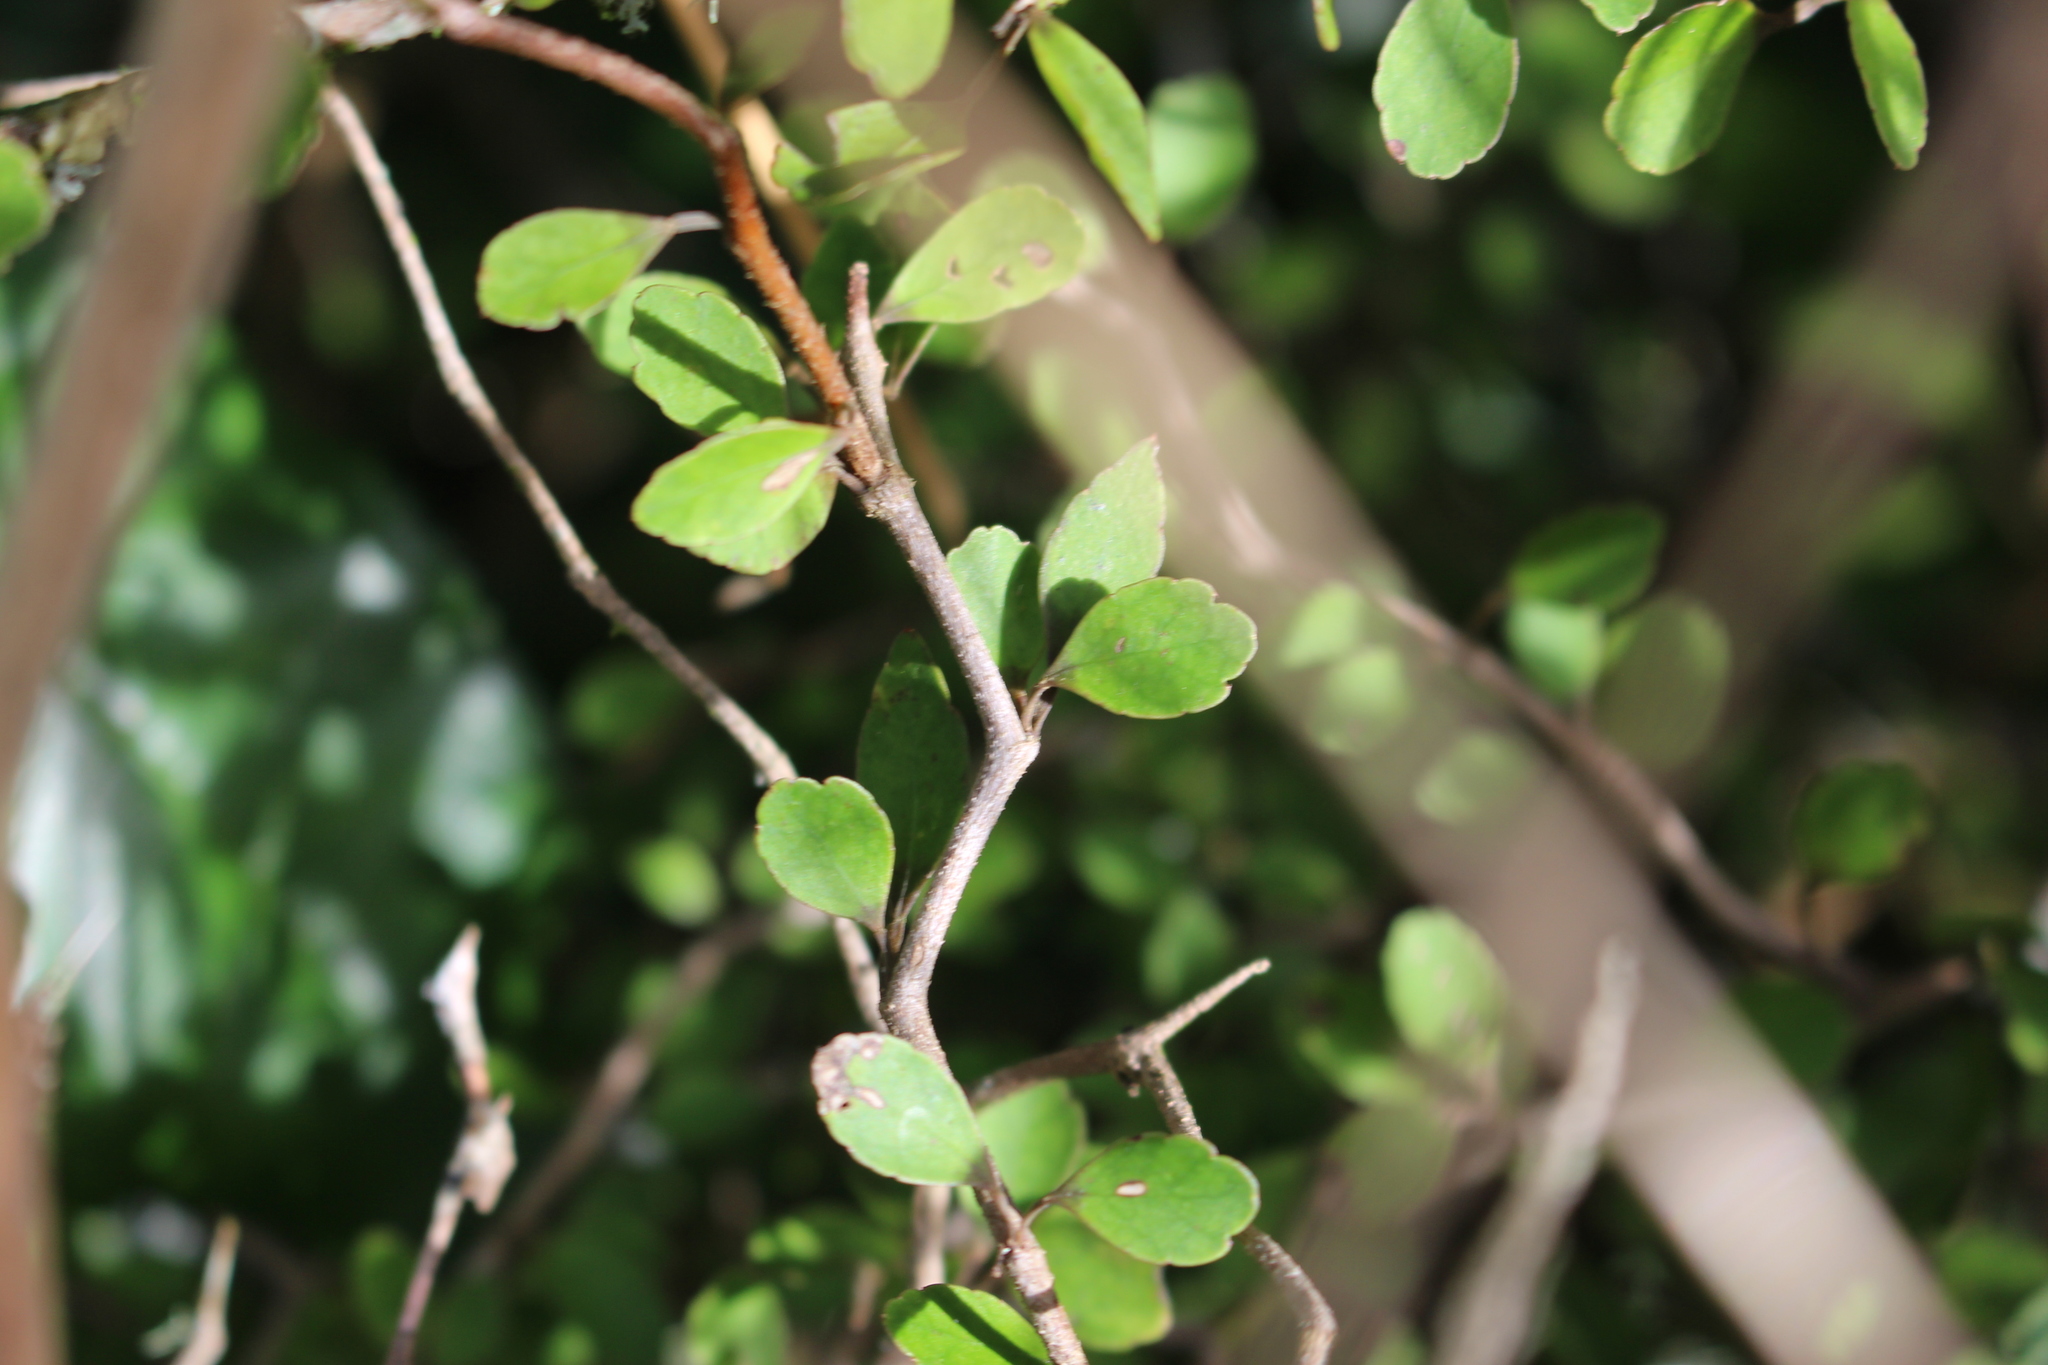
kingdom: Plantae
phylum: Tracheophyta
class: Magnoliopsida
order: Apiales
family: Araliaceae
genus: Raukaua
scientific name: Raukaua anomalus
